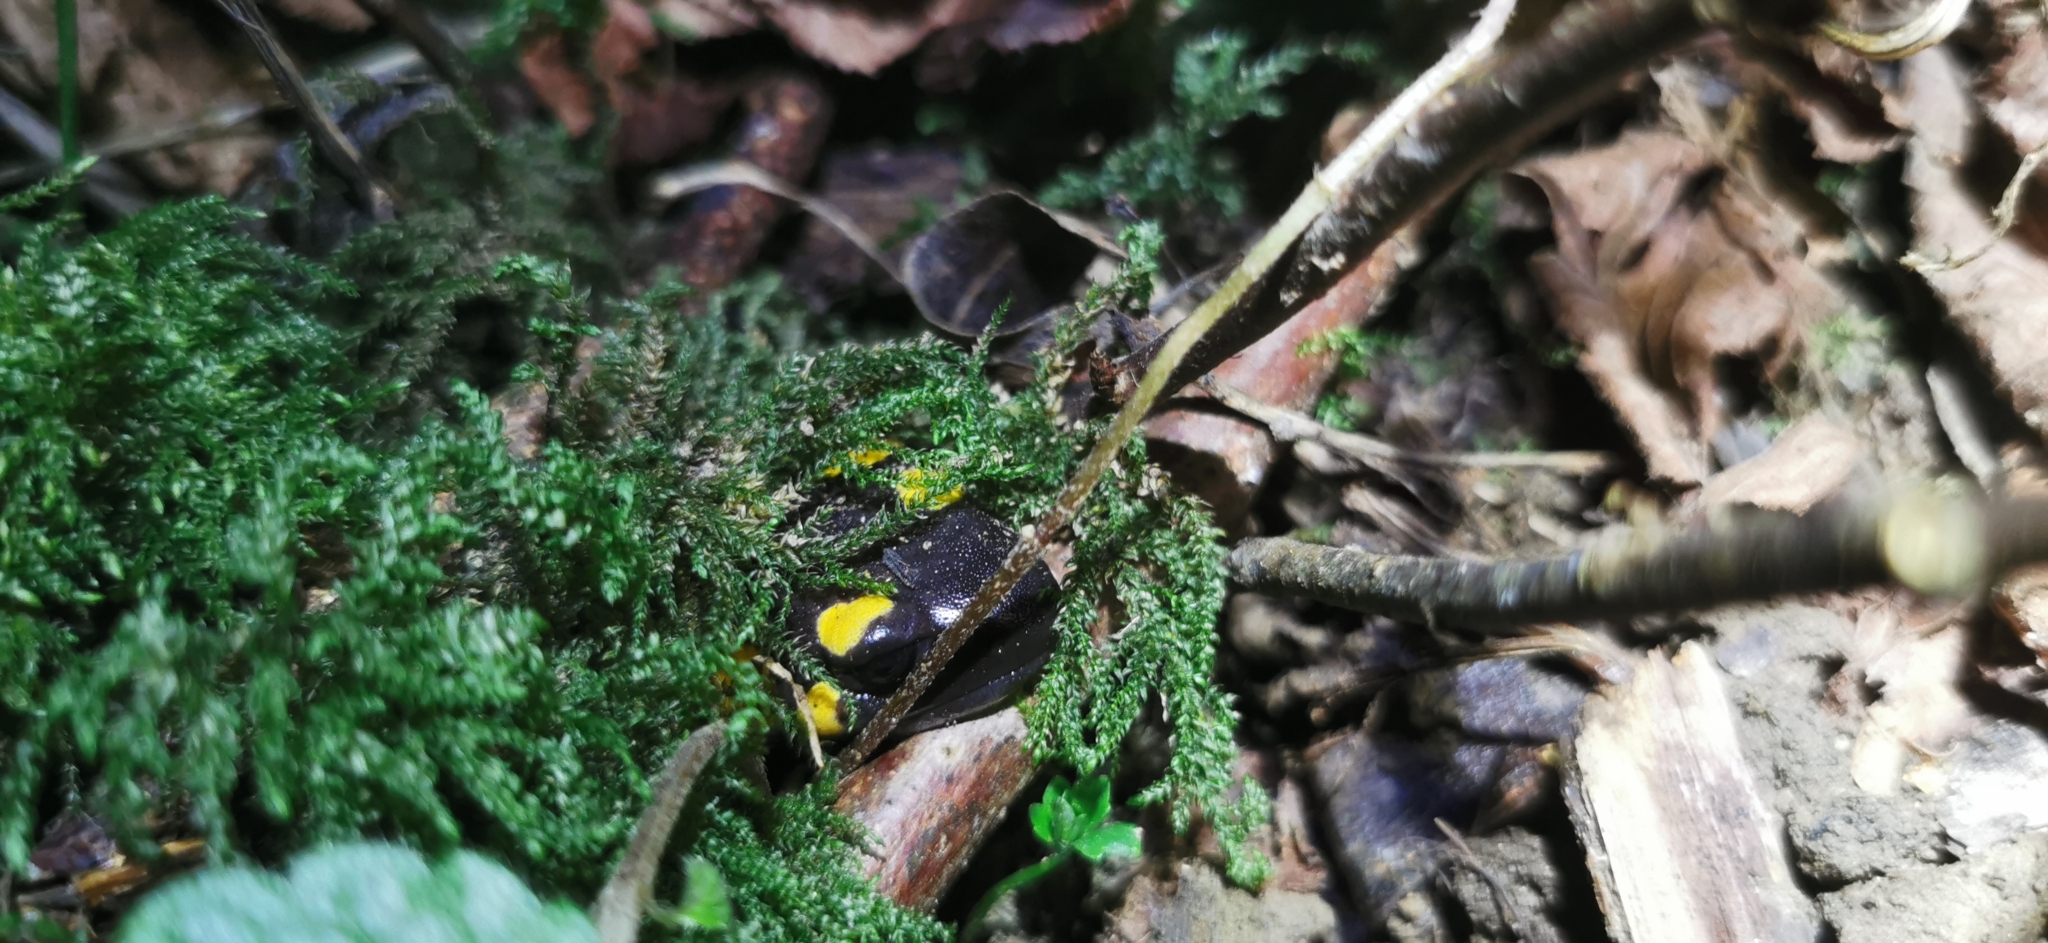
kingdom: Animalia
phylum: Chordata
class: Amphibia
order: Caudata
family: Salamandridae
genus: Salamandra
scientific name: Salamandra salamandra
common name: Fire salamander
